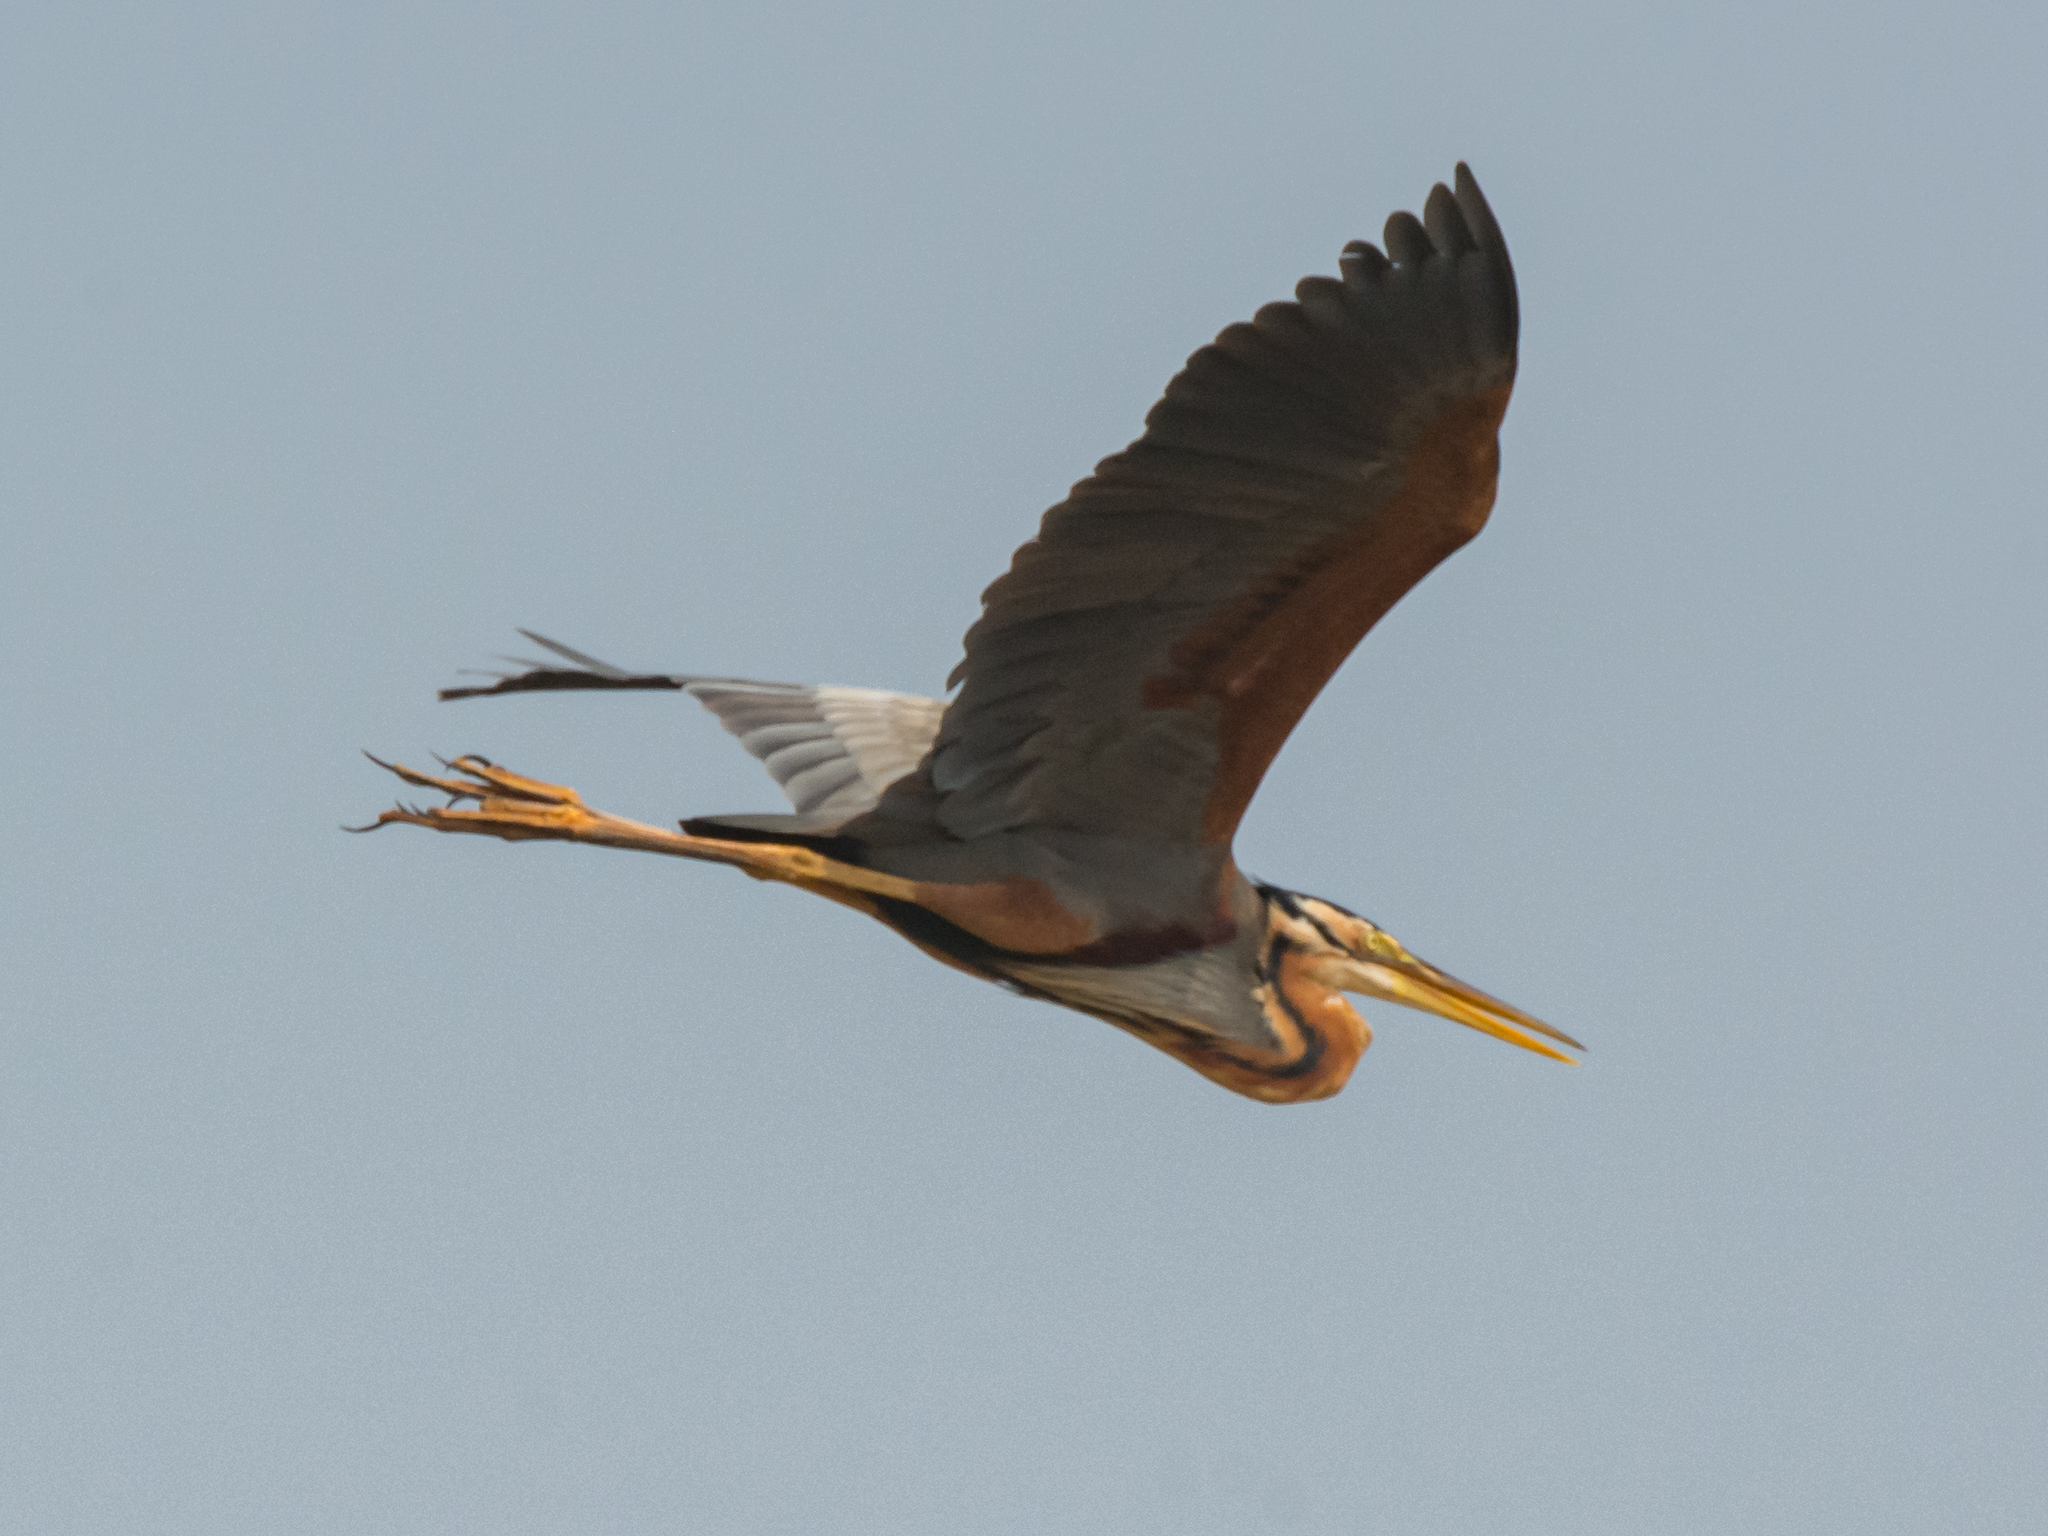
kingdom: Animalia
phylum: Chordata
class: Aves
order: Pelecaniformes
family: Ardeidae
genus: Ardea
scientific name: Ardea purpurea
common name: Purple heron
